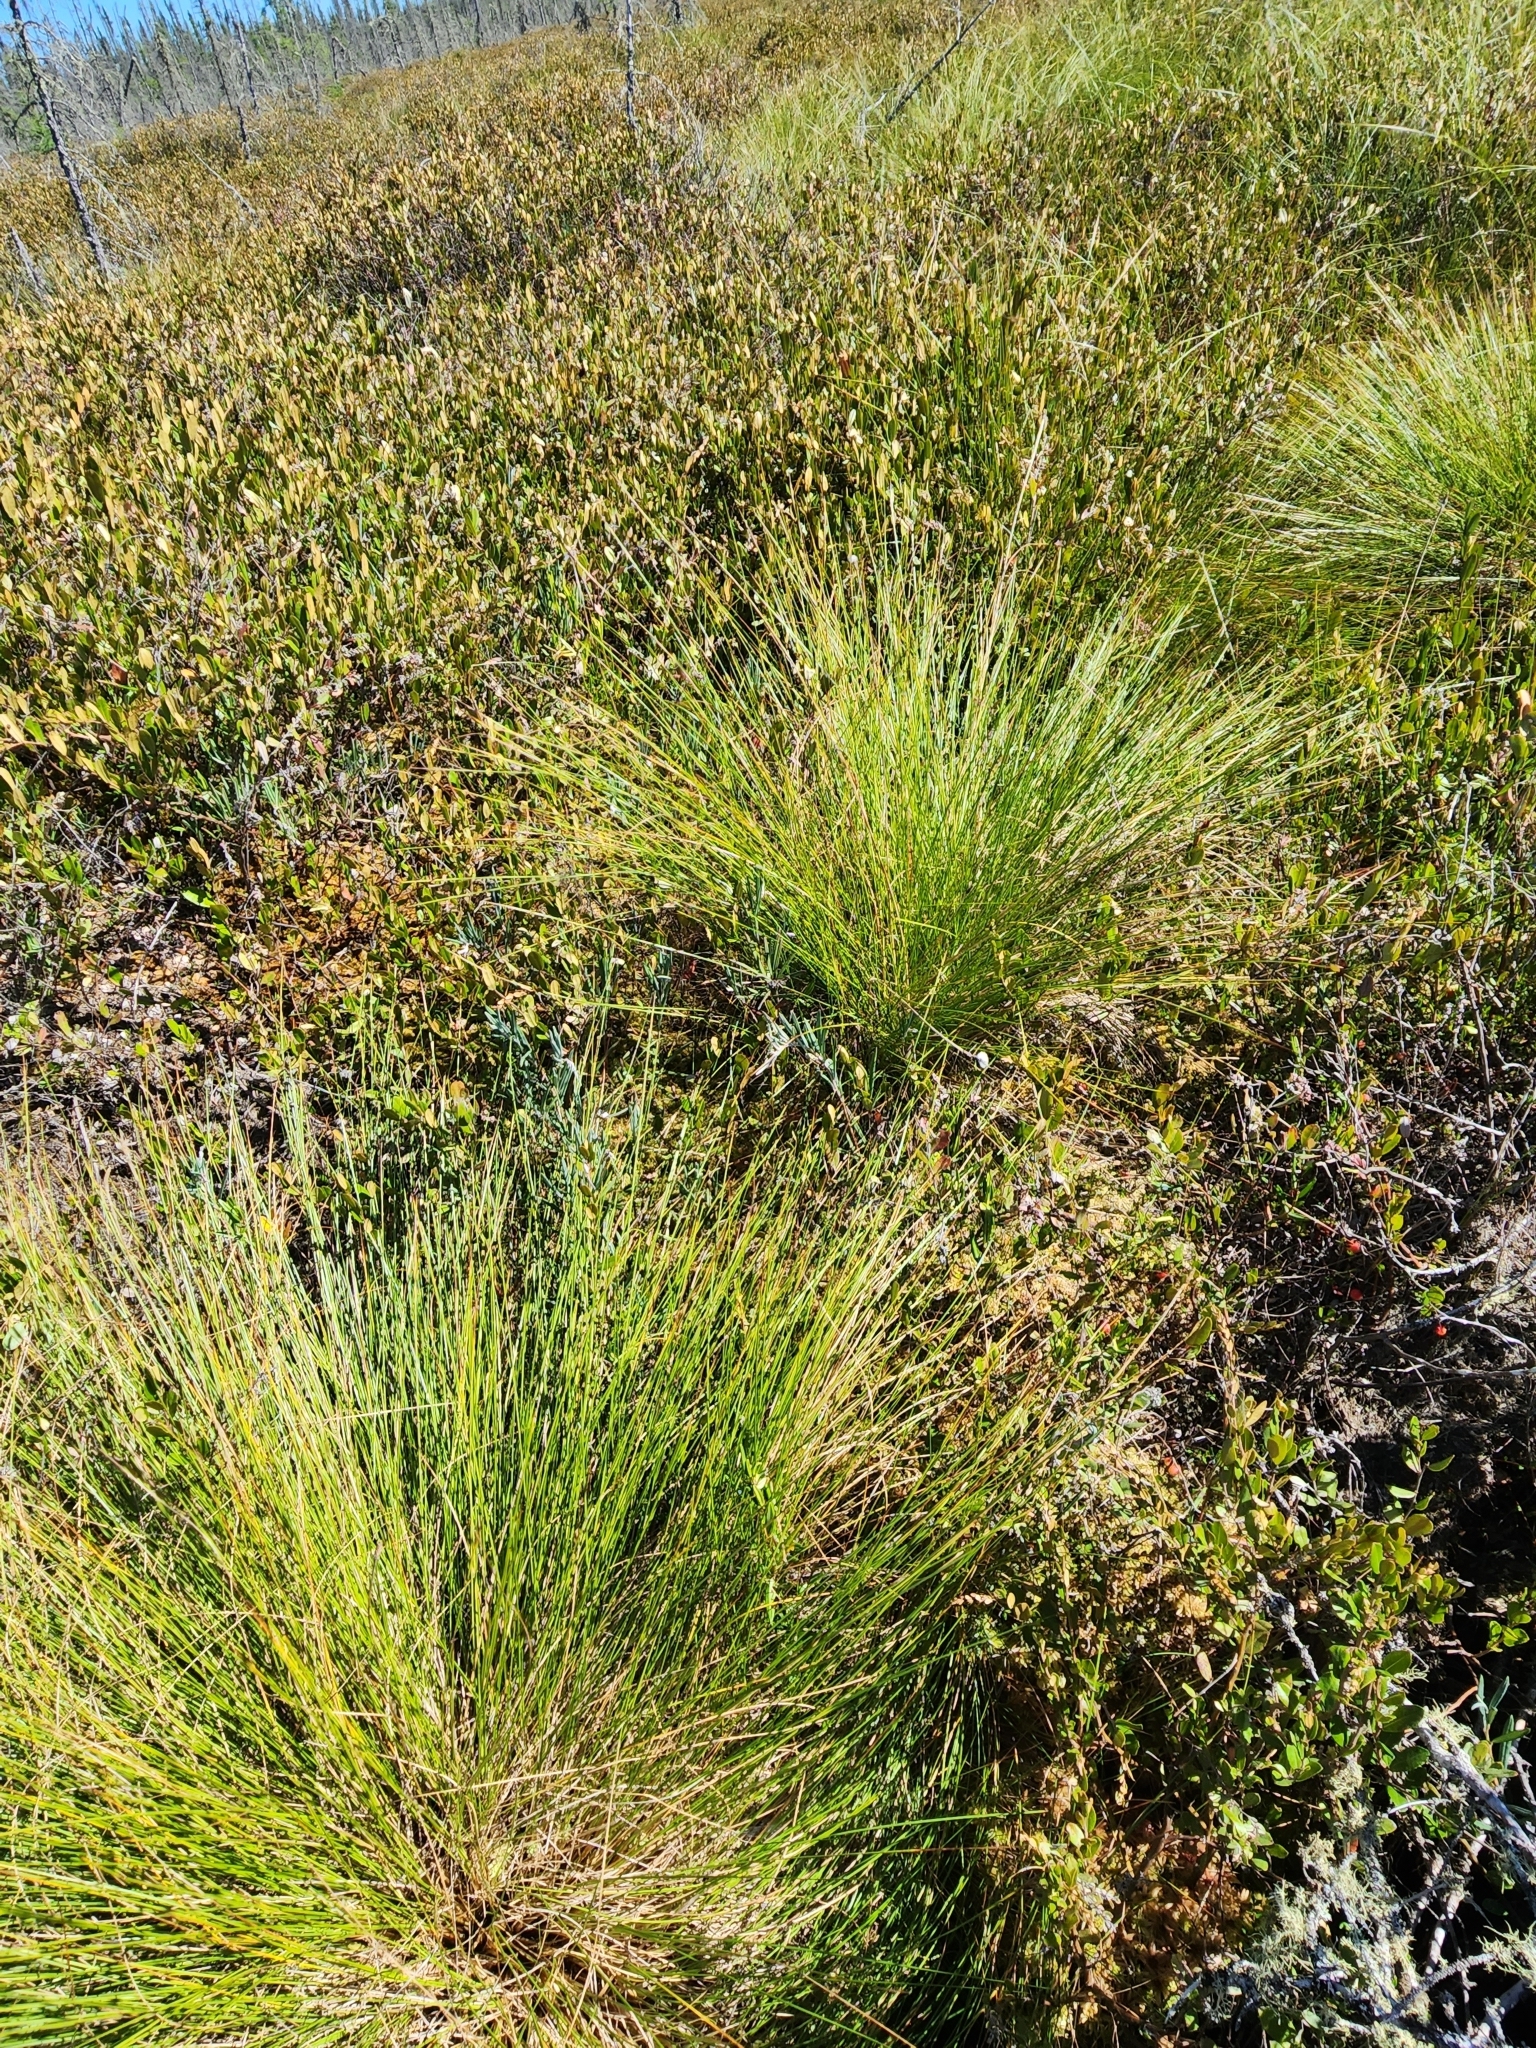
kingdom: Plantae
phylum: Tracheophyta
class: Liliopsida
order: Poales
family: Cyperaceae
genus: Eriophorum
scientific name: Eriophorum vaginatum
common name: Hare's-tail cottongrass
